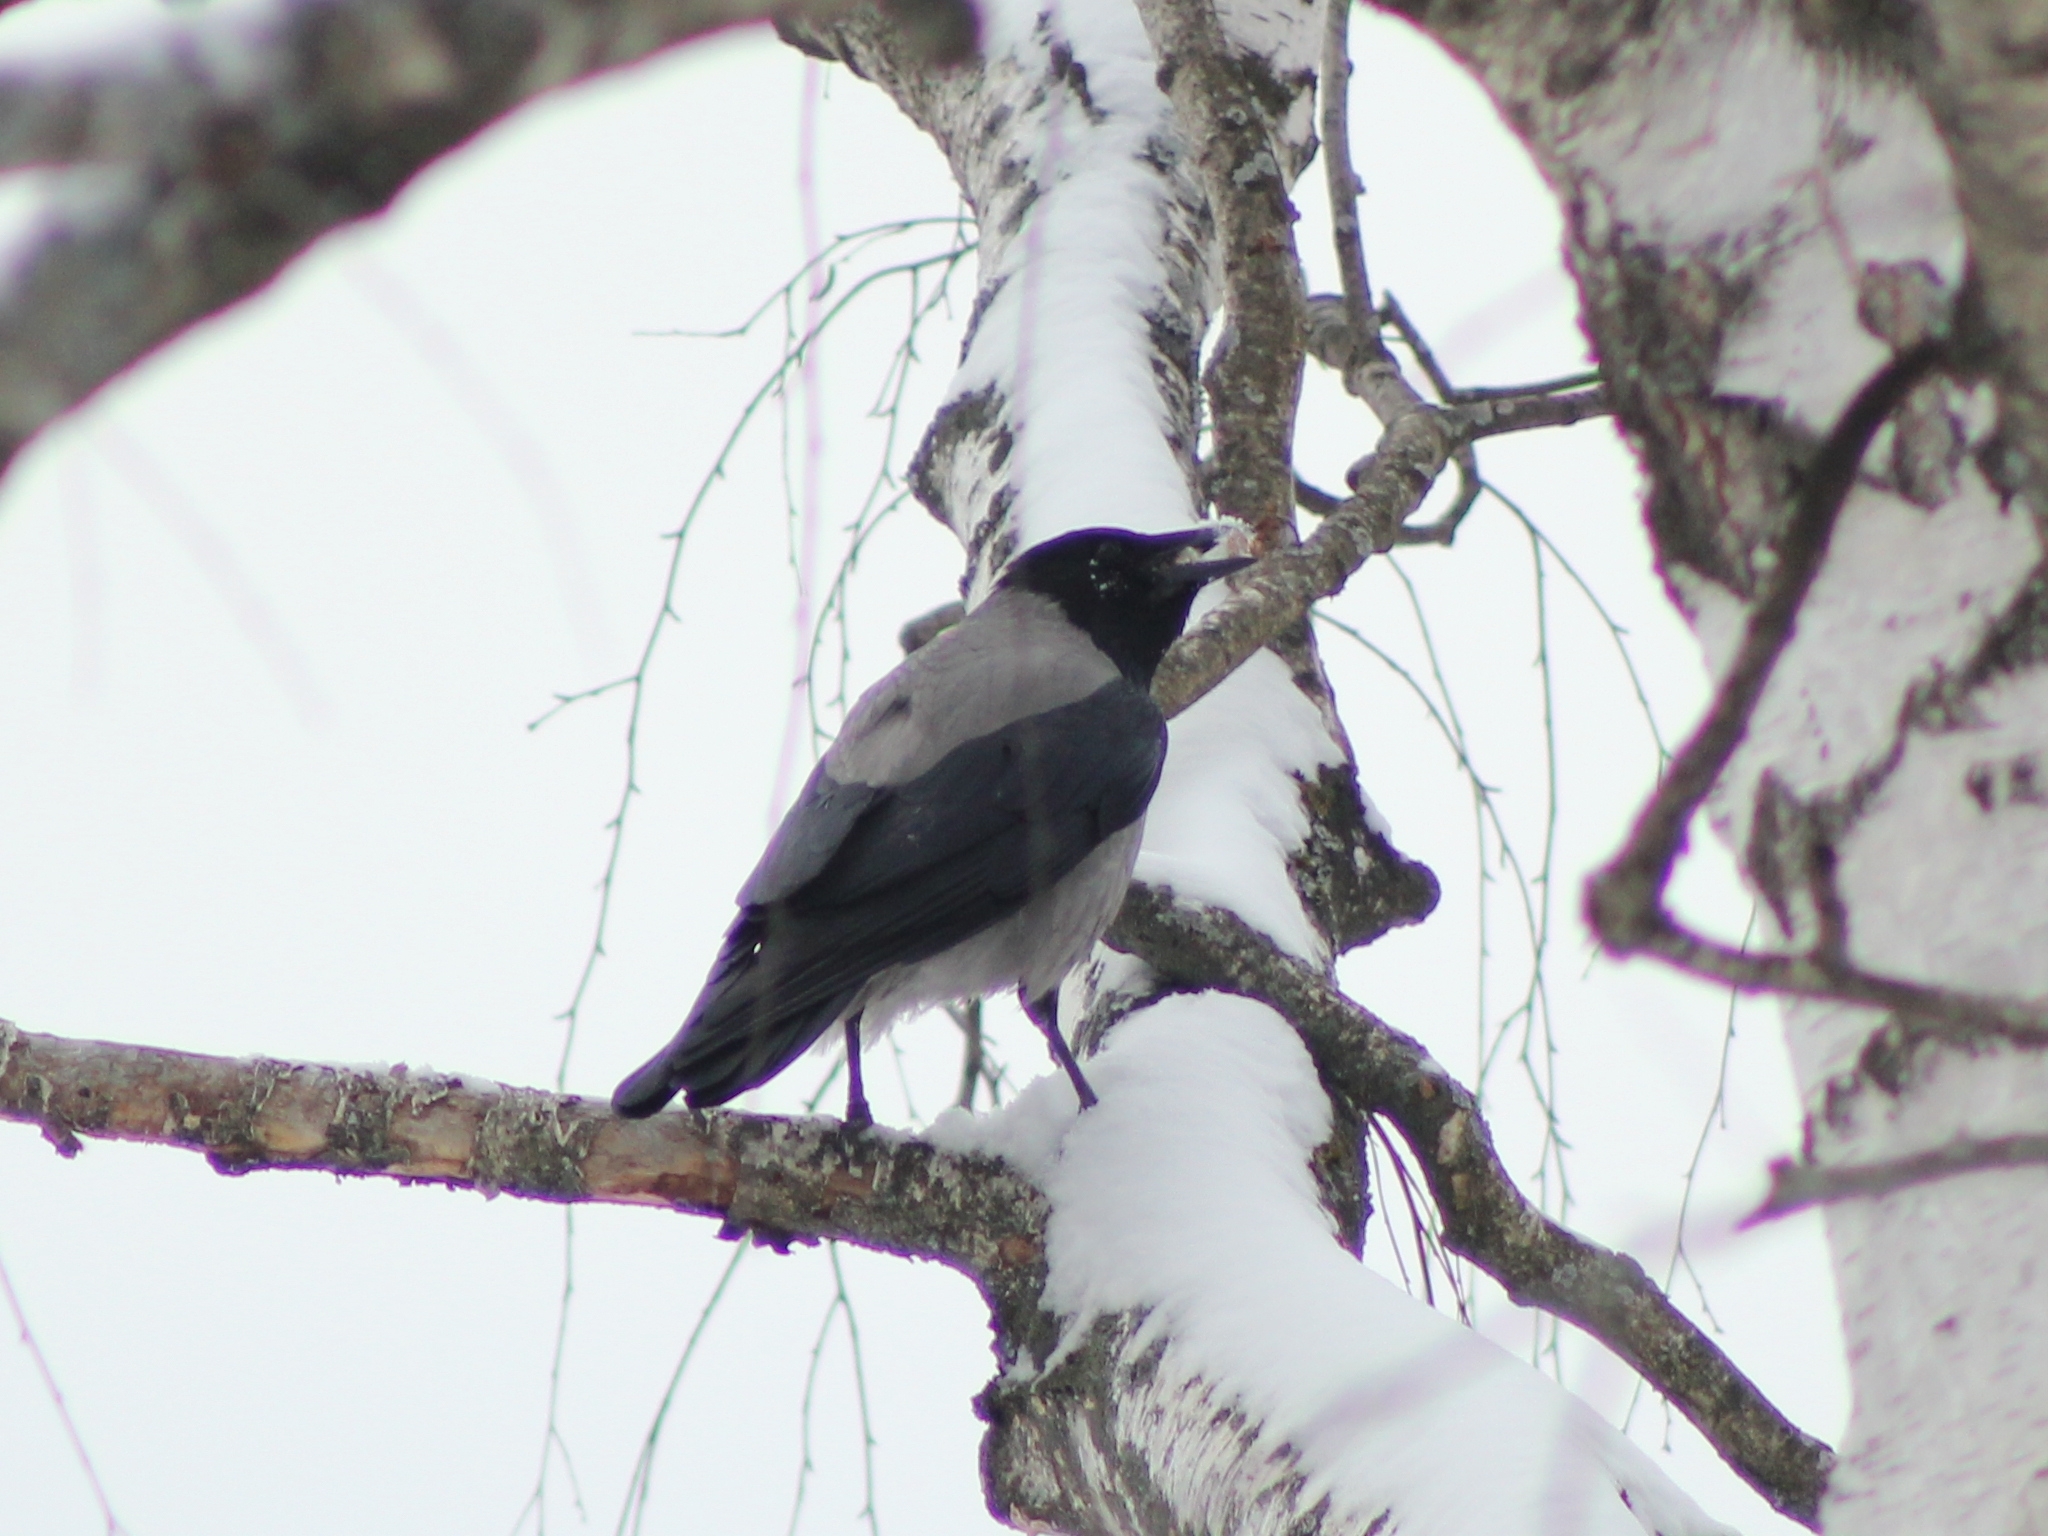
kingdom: Animalia
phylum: Chordata
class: Aves
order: Passeriformes
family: Corvidae
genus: Corvus
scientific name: Corvus cornix
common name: Hooded crow
